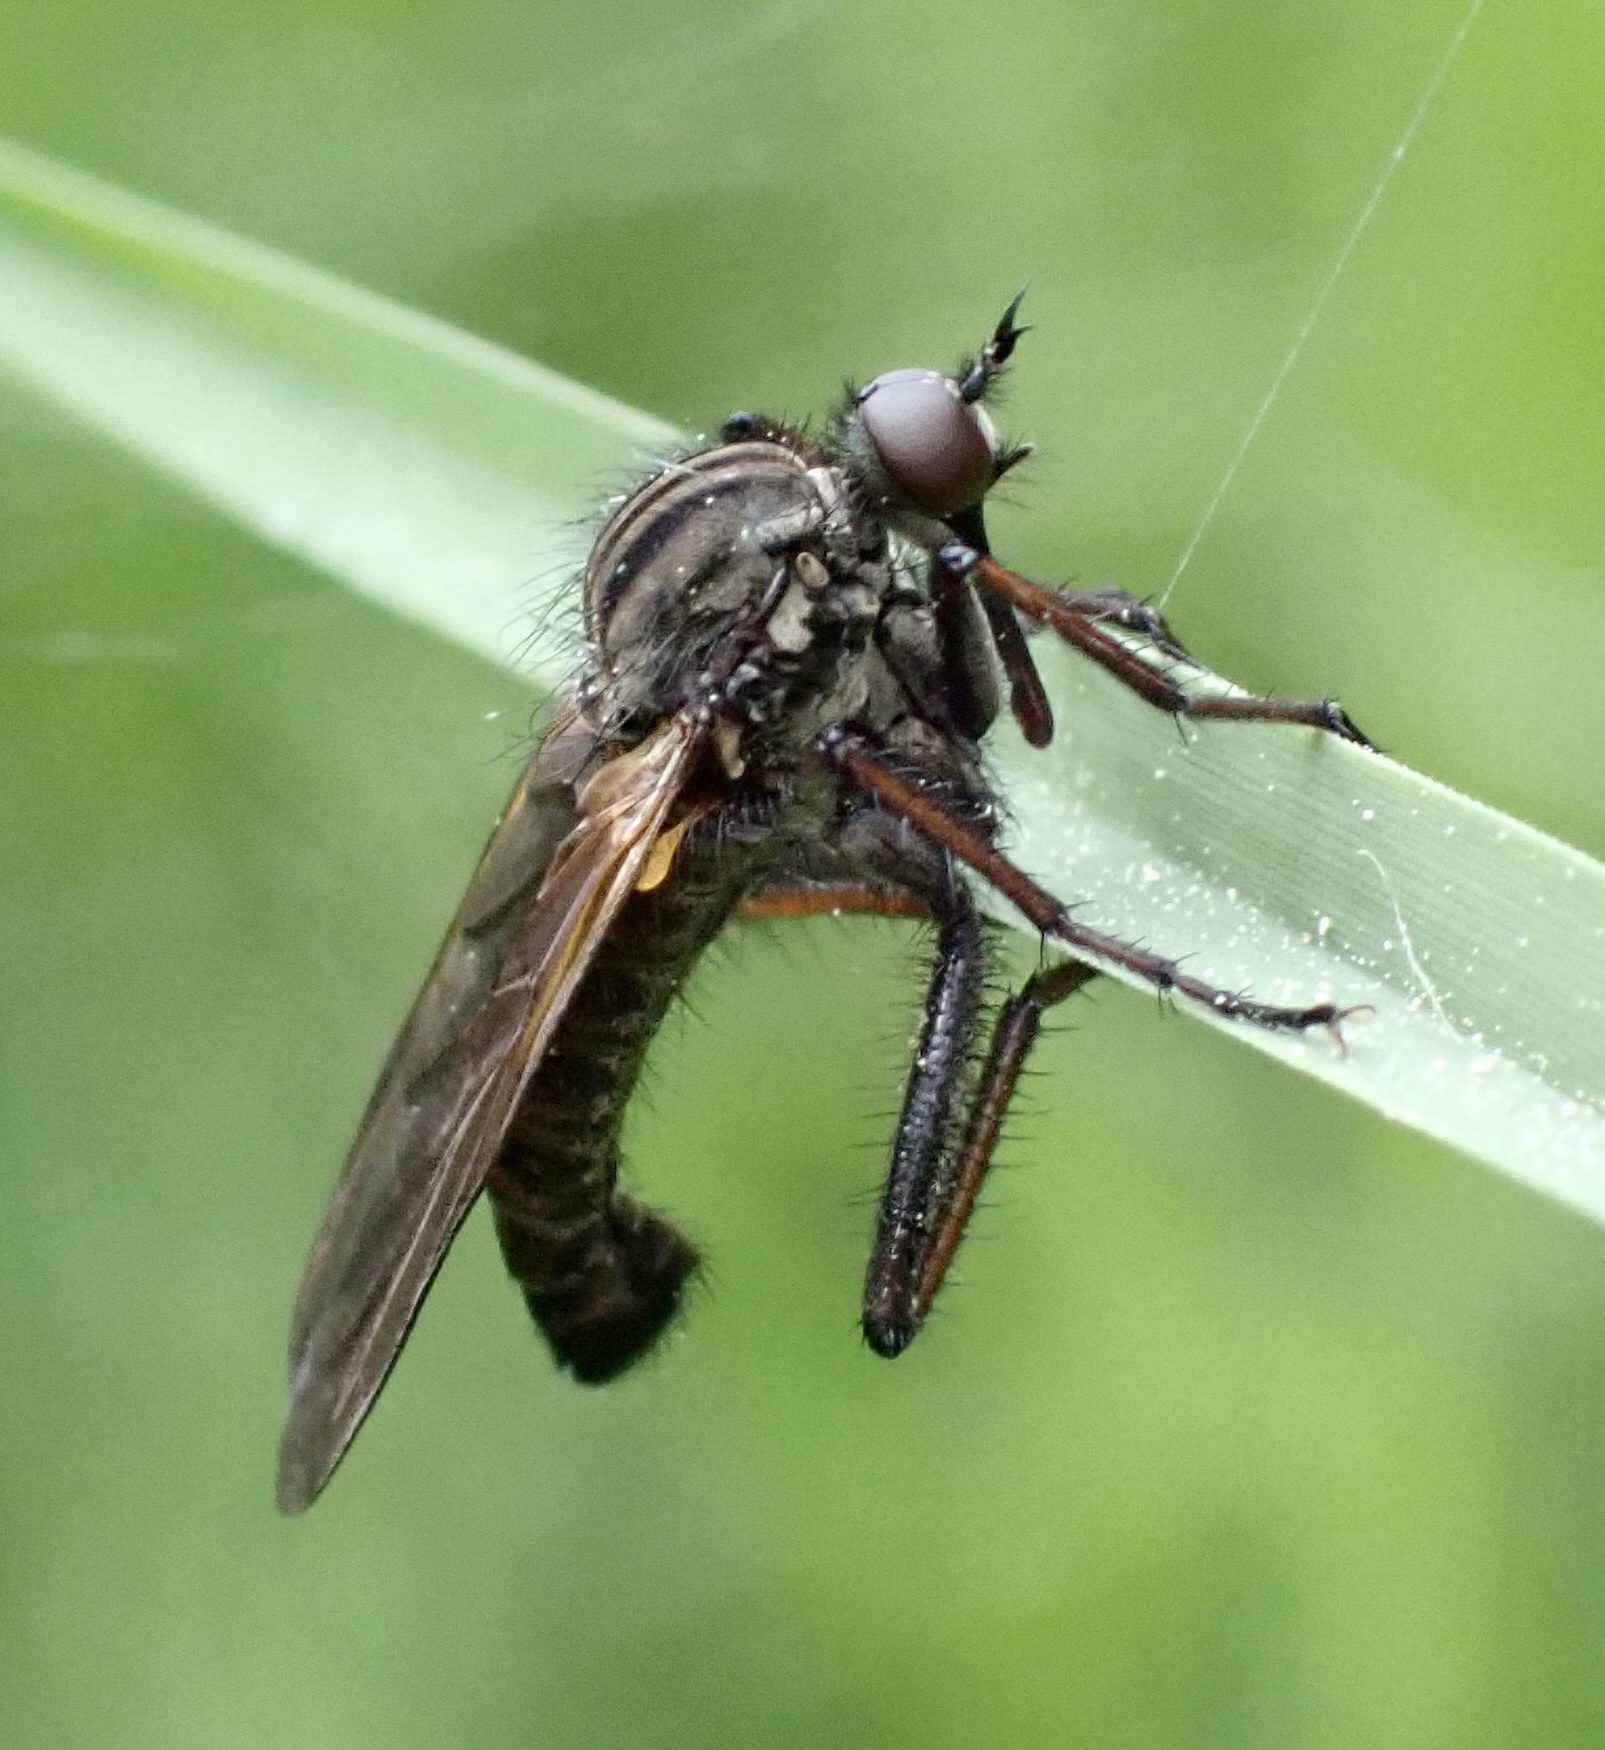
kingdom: Animalia
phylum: Arthropoda
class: Insecta
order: Diptera
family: Empididae
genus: Empis
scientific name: Empis tessellata
